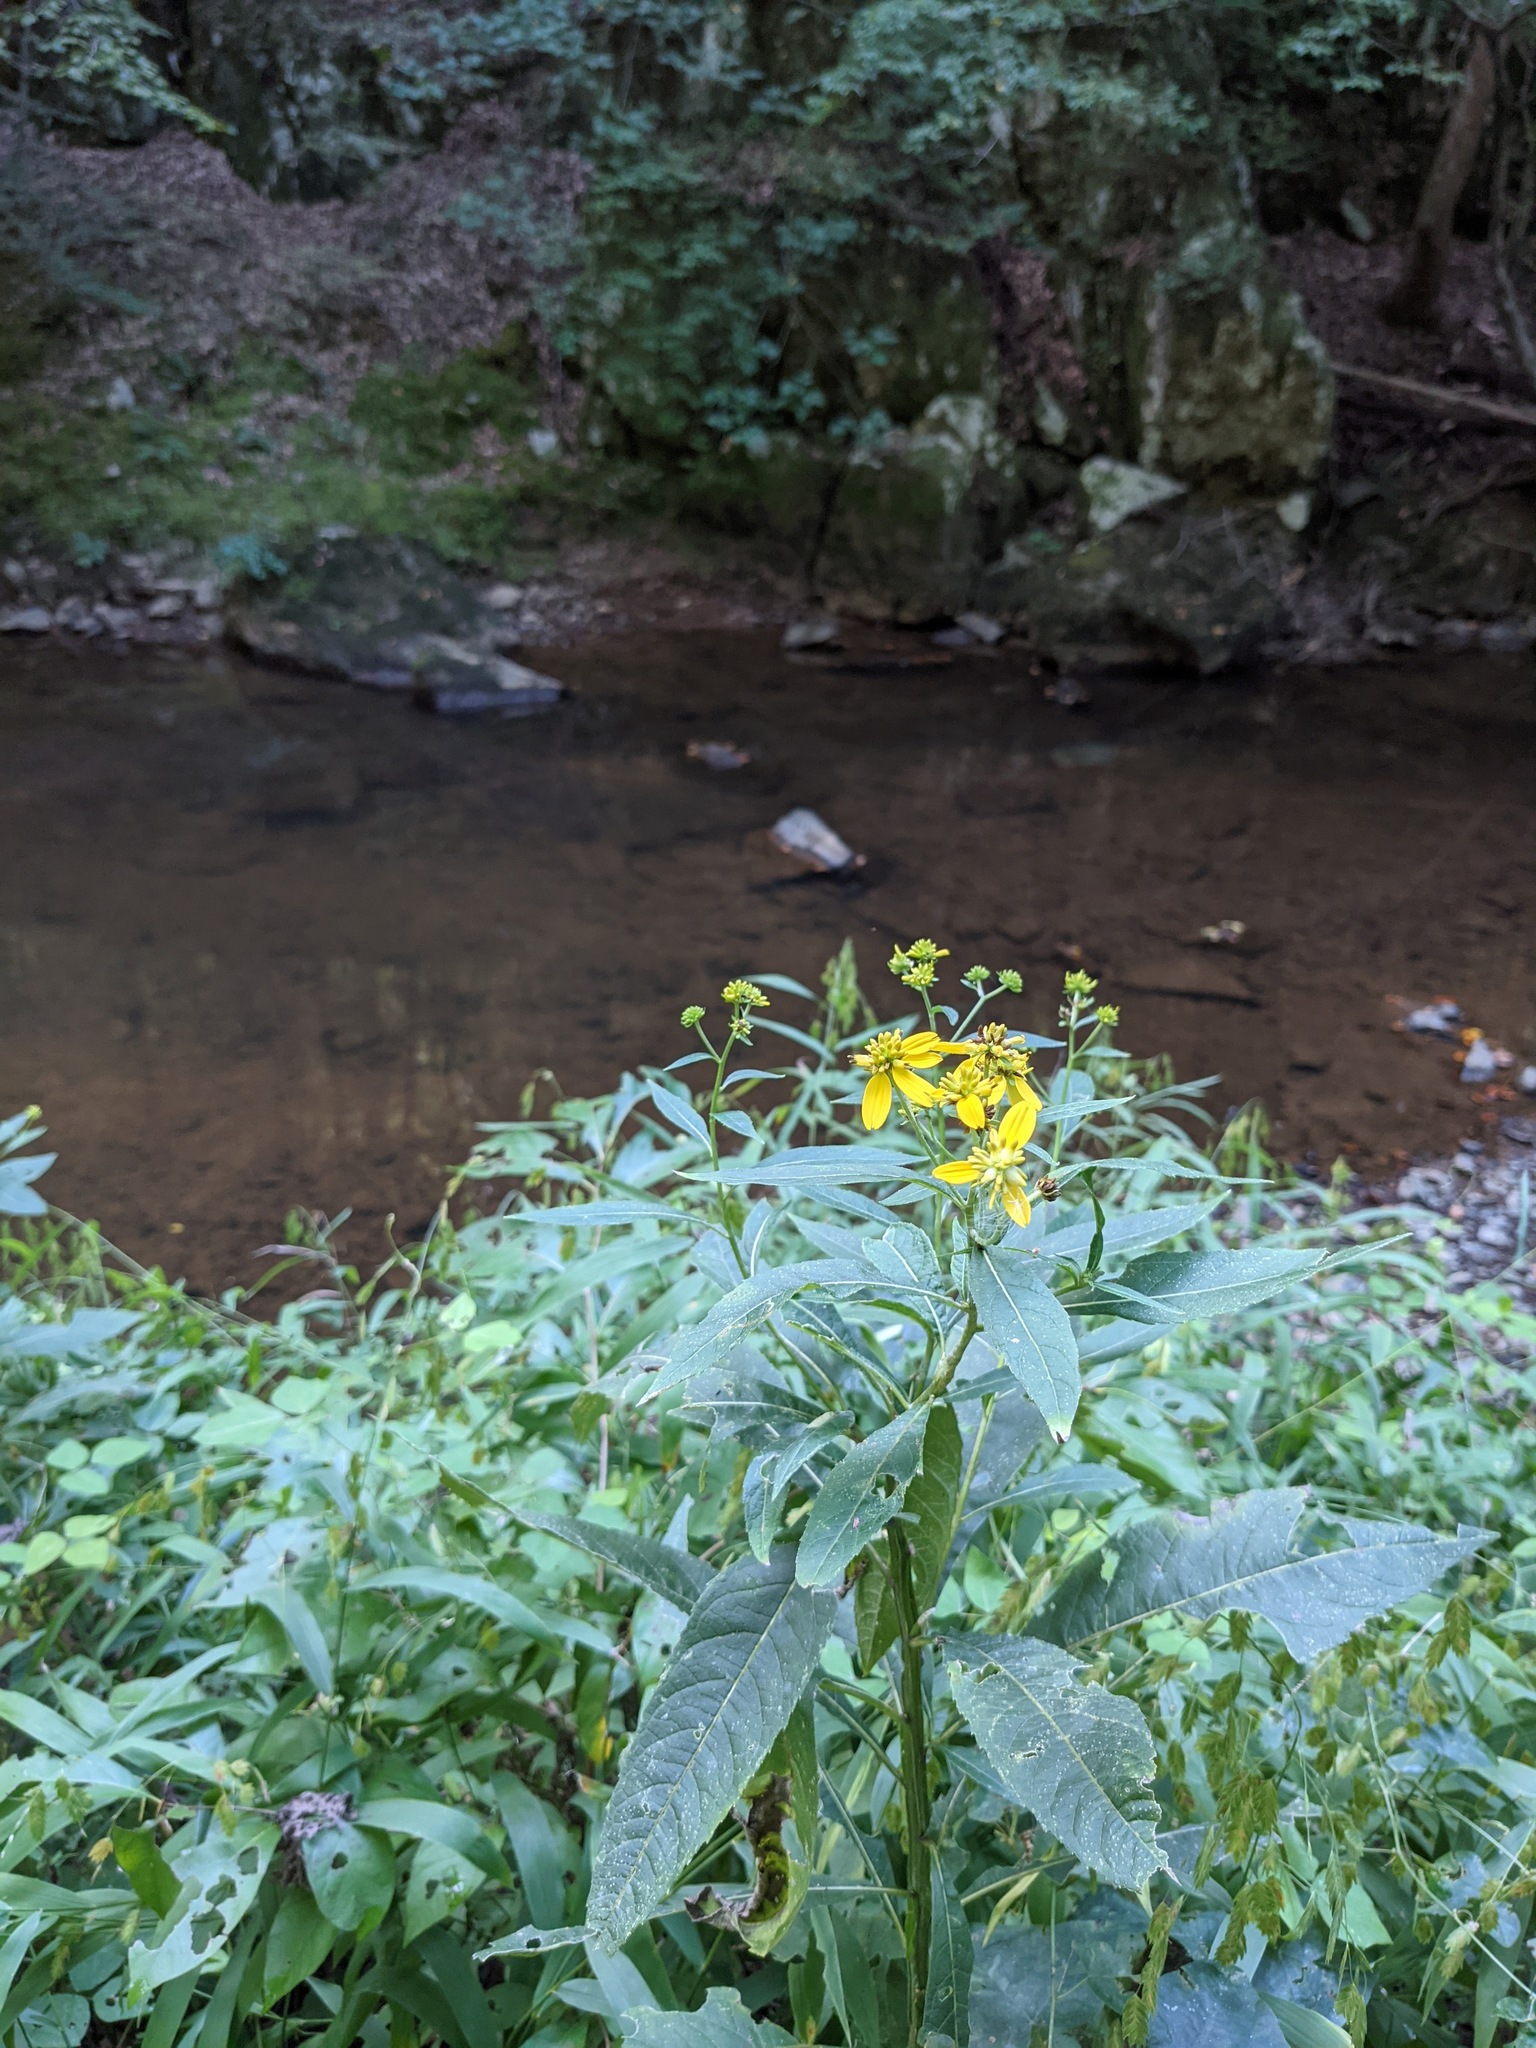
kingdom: Plantae
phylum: Tracheophyta
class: Magnoliopsida
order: Asterales
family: Asteraceae
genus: Verbesina
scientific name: Verbesina alternifolia
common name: Wingstem
